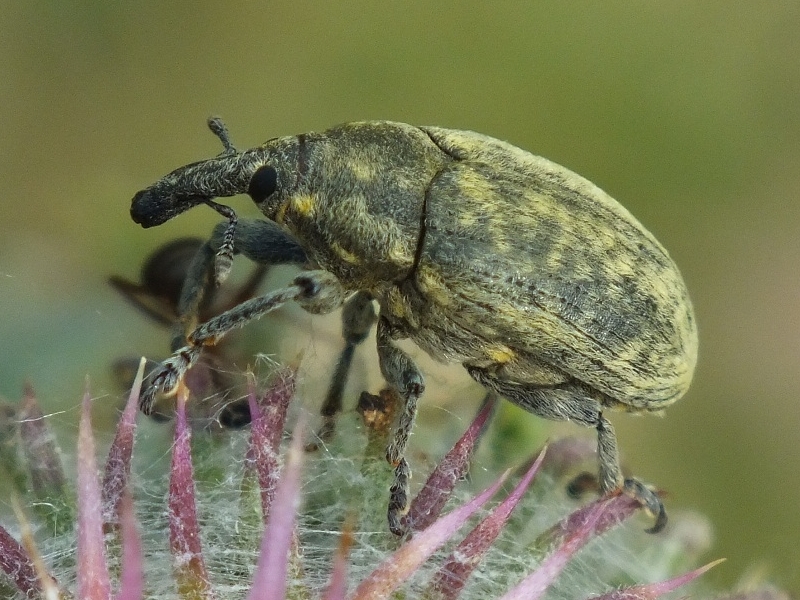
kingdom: Animalia
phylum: Arthropoda
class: Insecta
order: Coleoptera
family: Curculionidae
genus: Larinus
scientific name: Larinus iaceae
